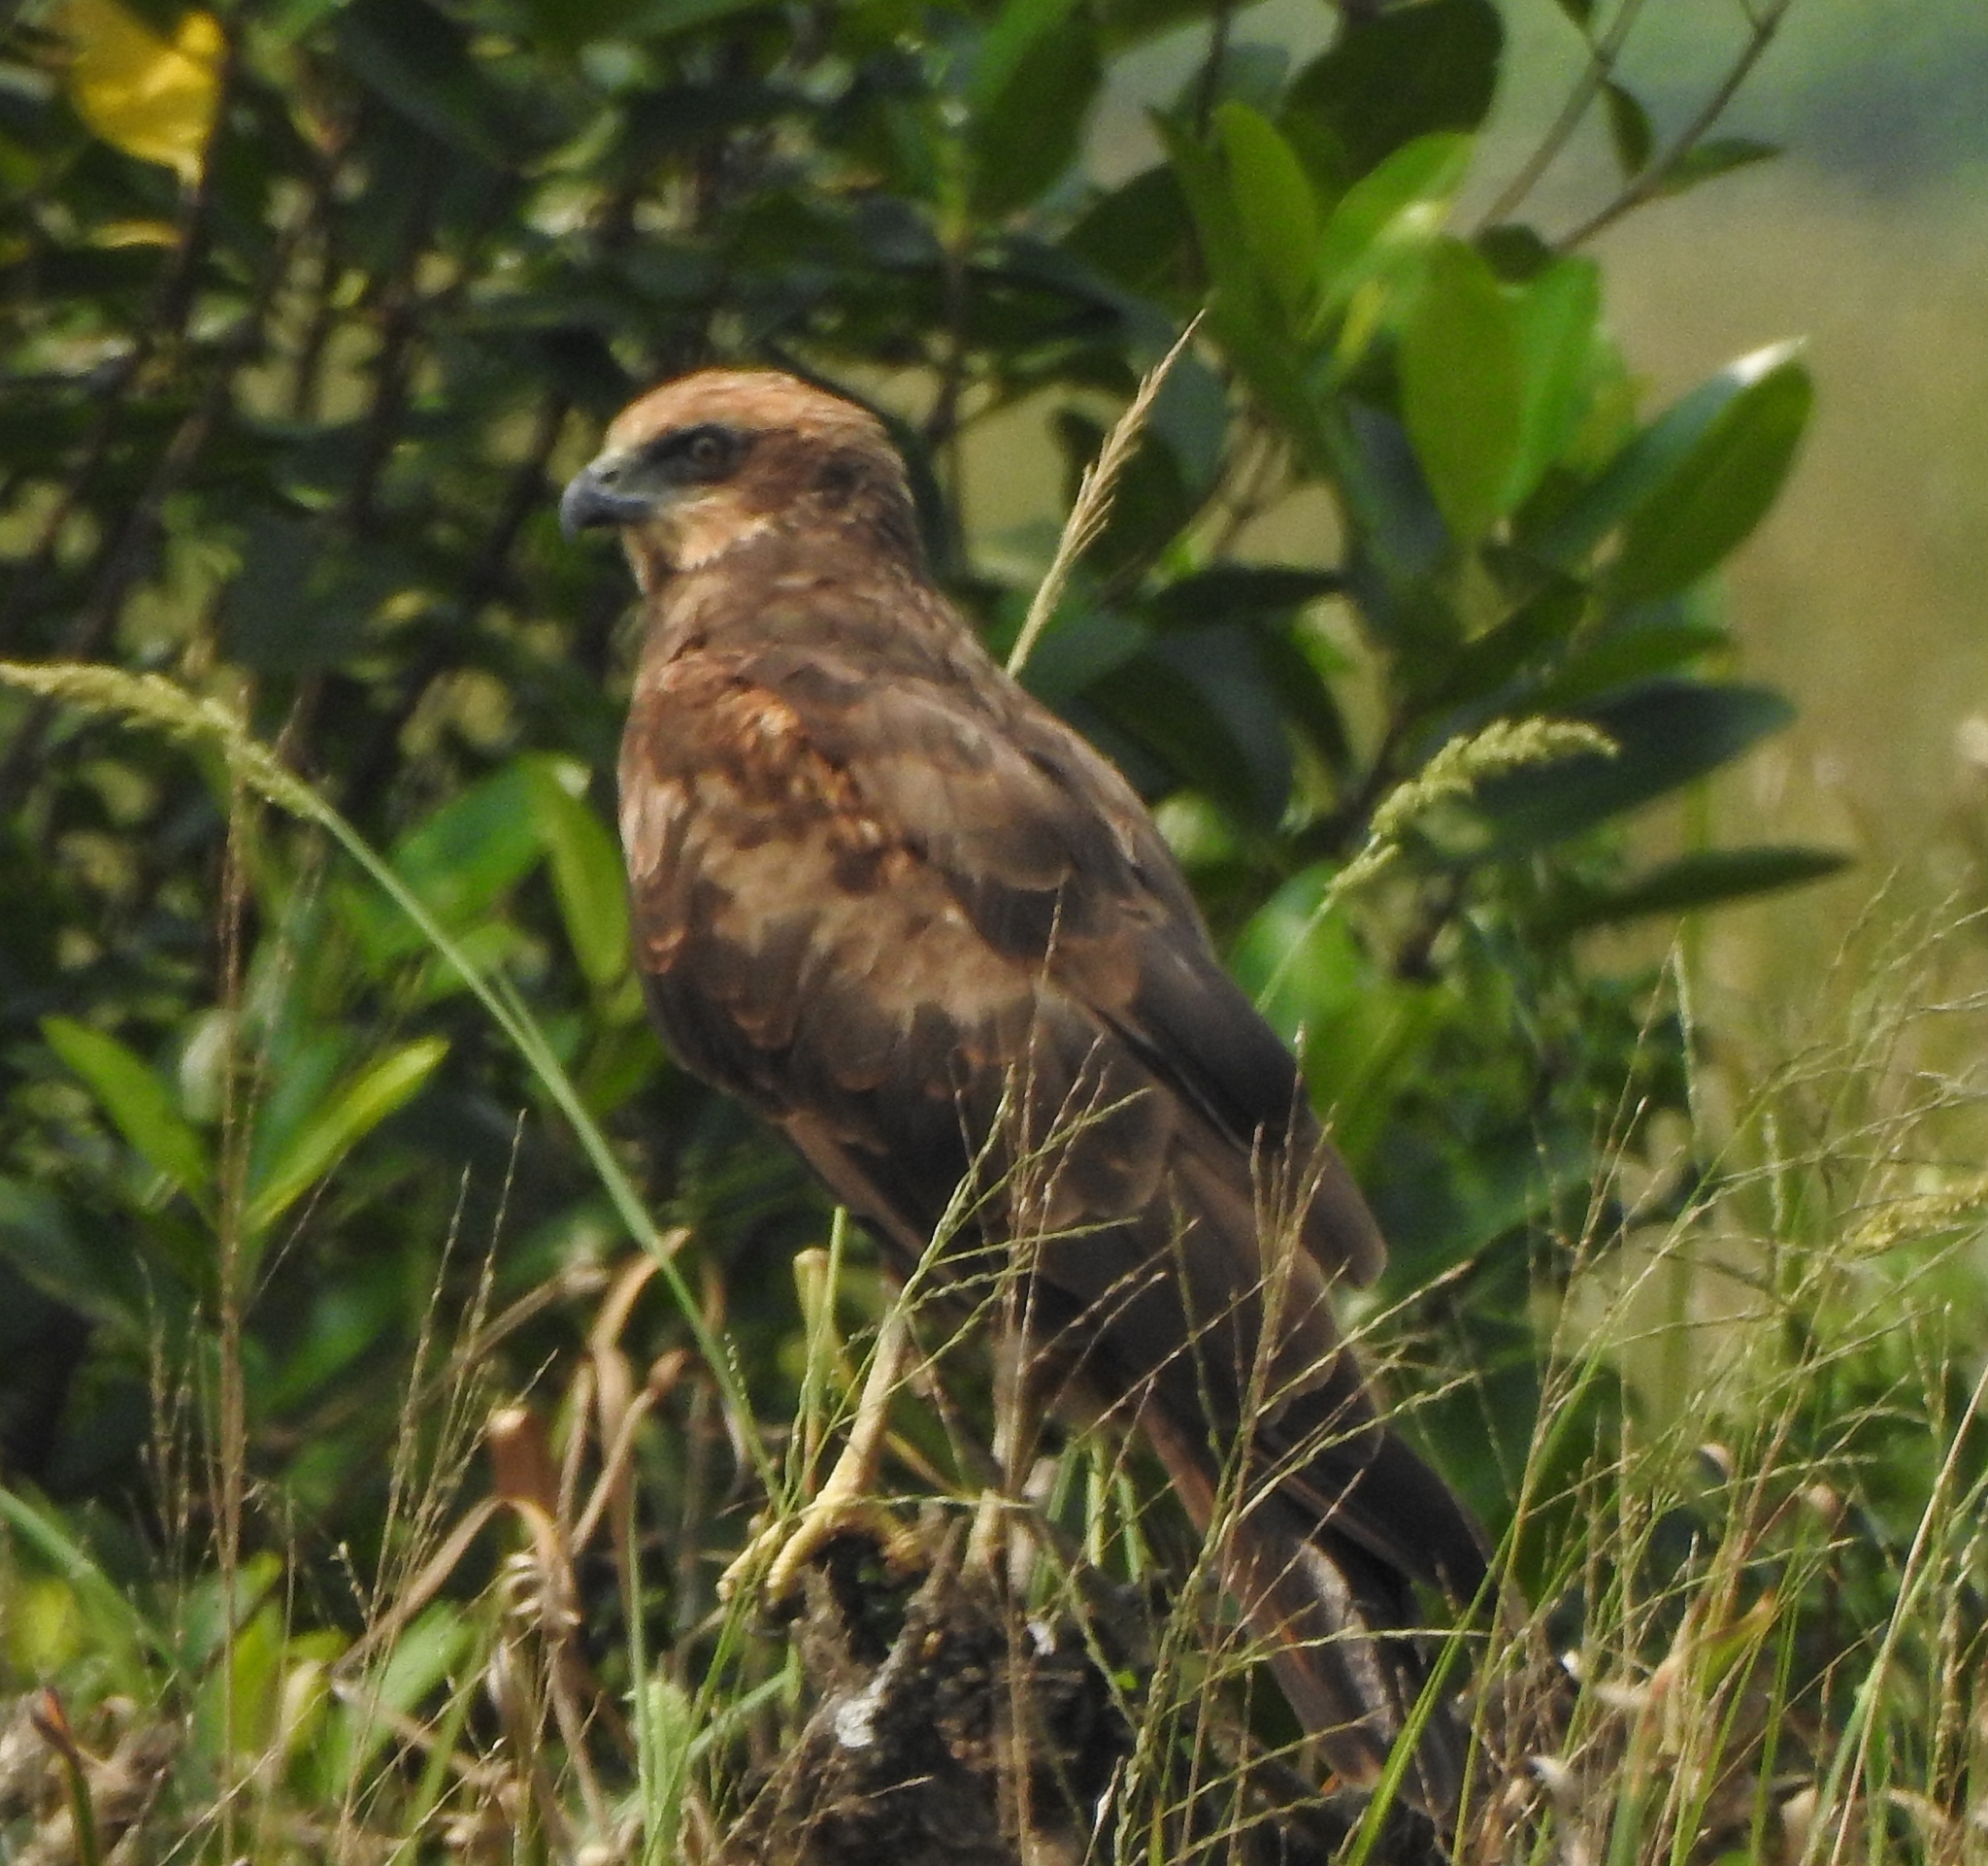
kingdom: Animalia
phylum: Chordata
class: Aves
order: Accipitriformes
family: Accipitridae
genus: Circus
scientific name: Circus aeruginosus
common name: Western marsh harrier
